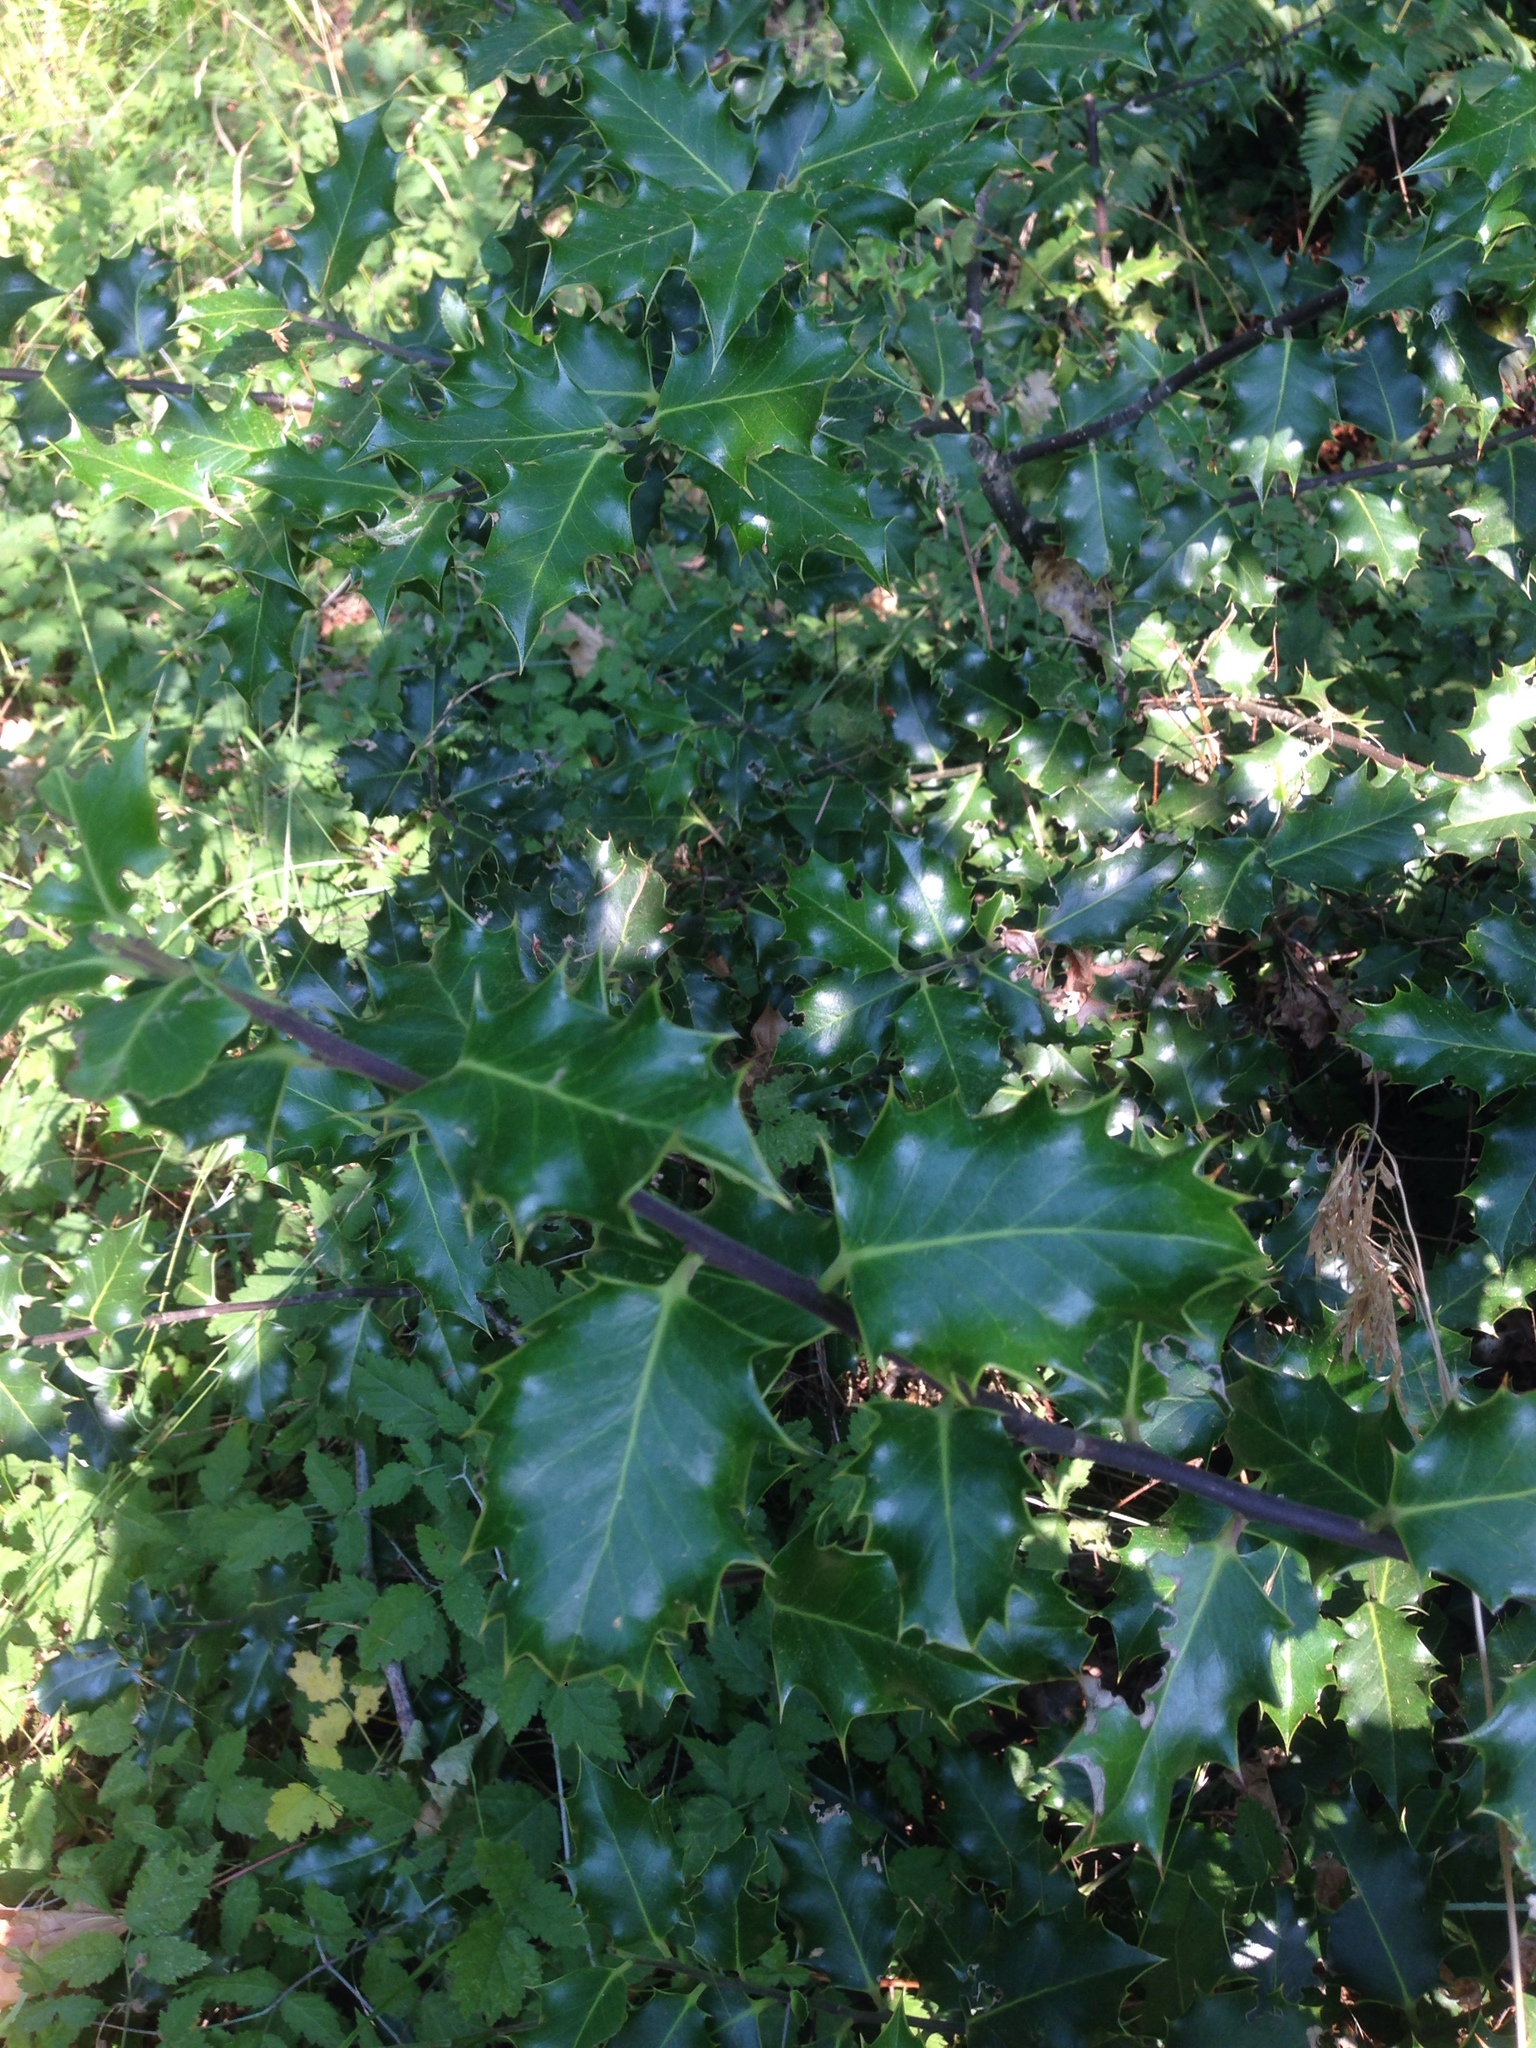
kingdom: Plantae
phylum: Tracheophyta
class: Magnoliopsida
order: Aquifoliales
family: Aquifoliaceae
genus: Ilex
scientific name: Ilex aquifolium
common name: English holly
